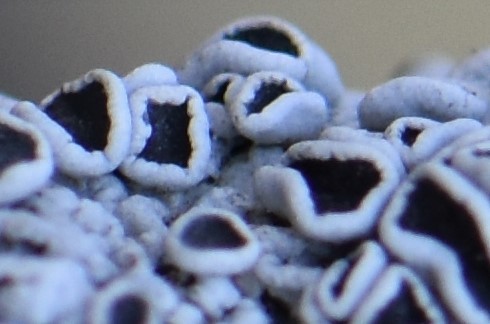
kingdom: Fungi
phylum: Ascomycota
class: Lecanoromycetes
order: Caliciales
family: Physciaceae
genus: Physcia
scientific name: Physcia aipolia
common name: Hoary rosette lichen
